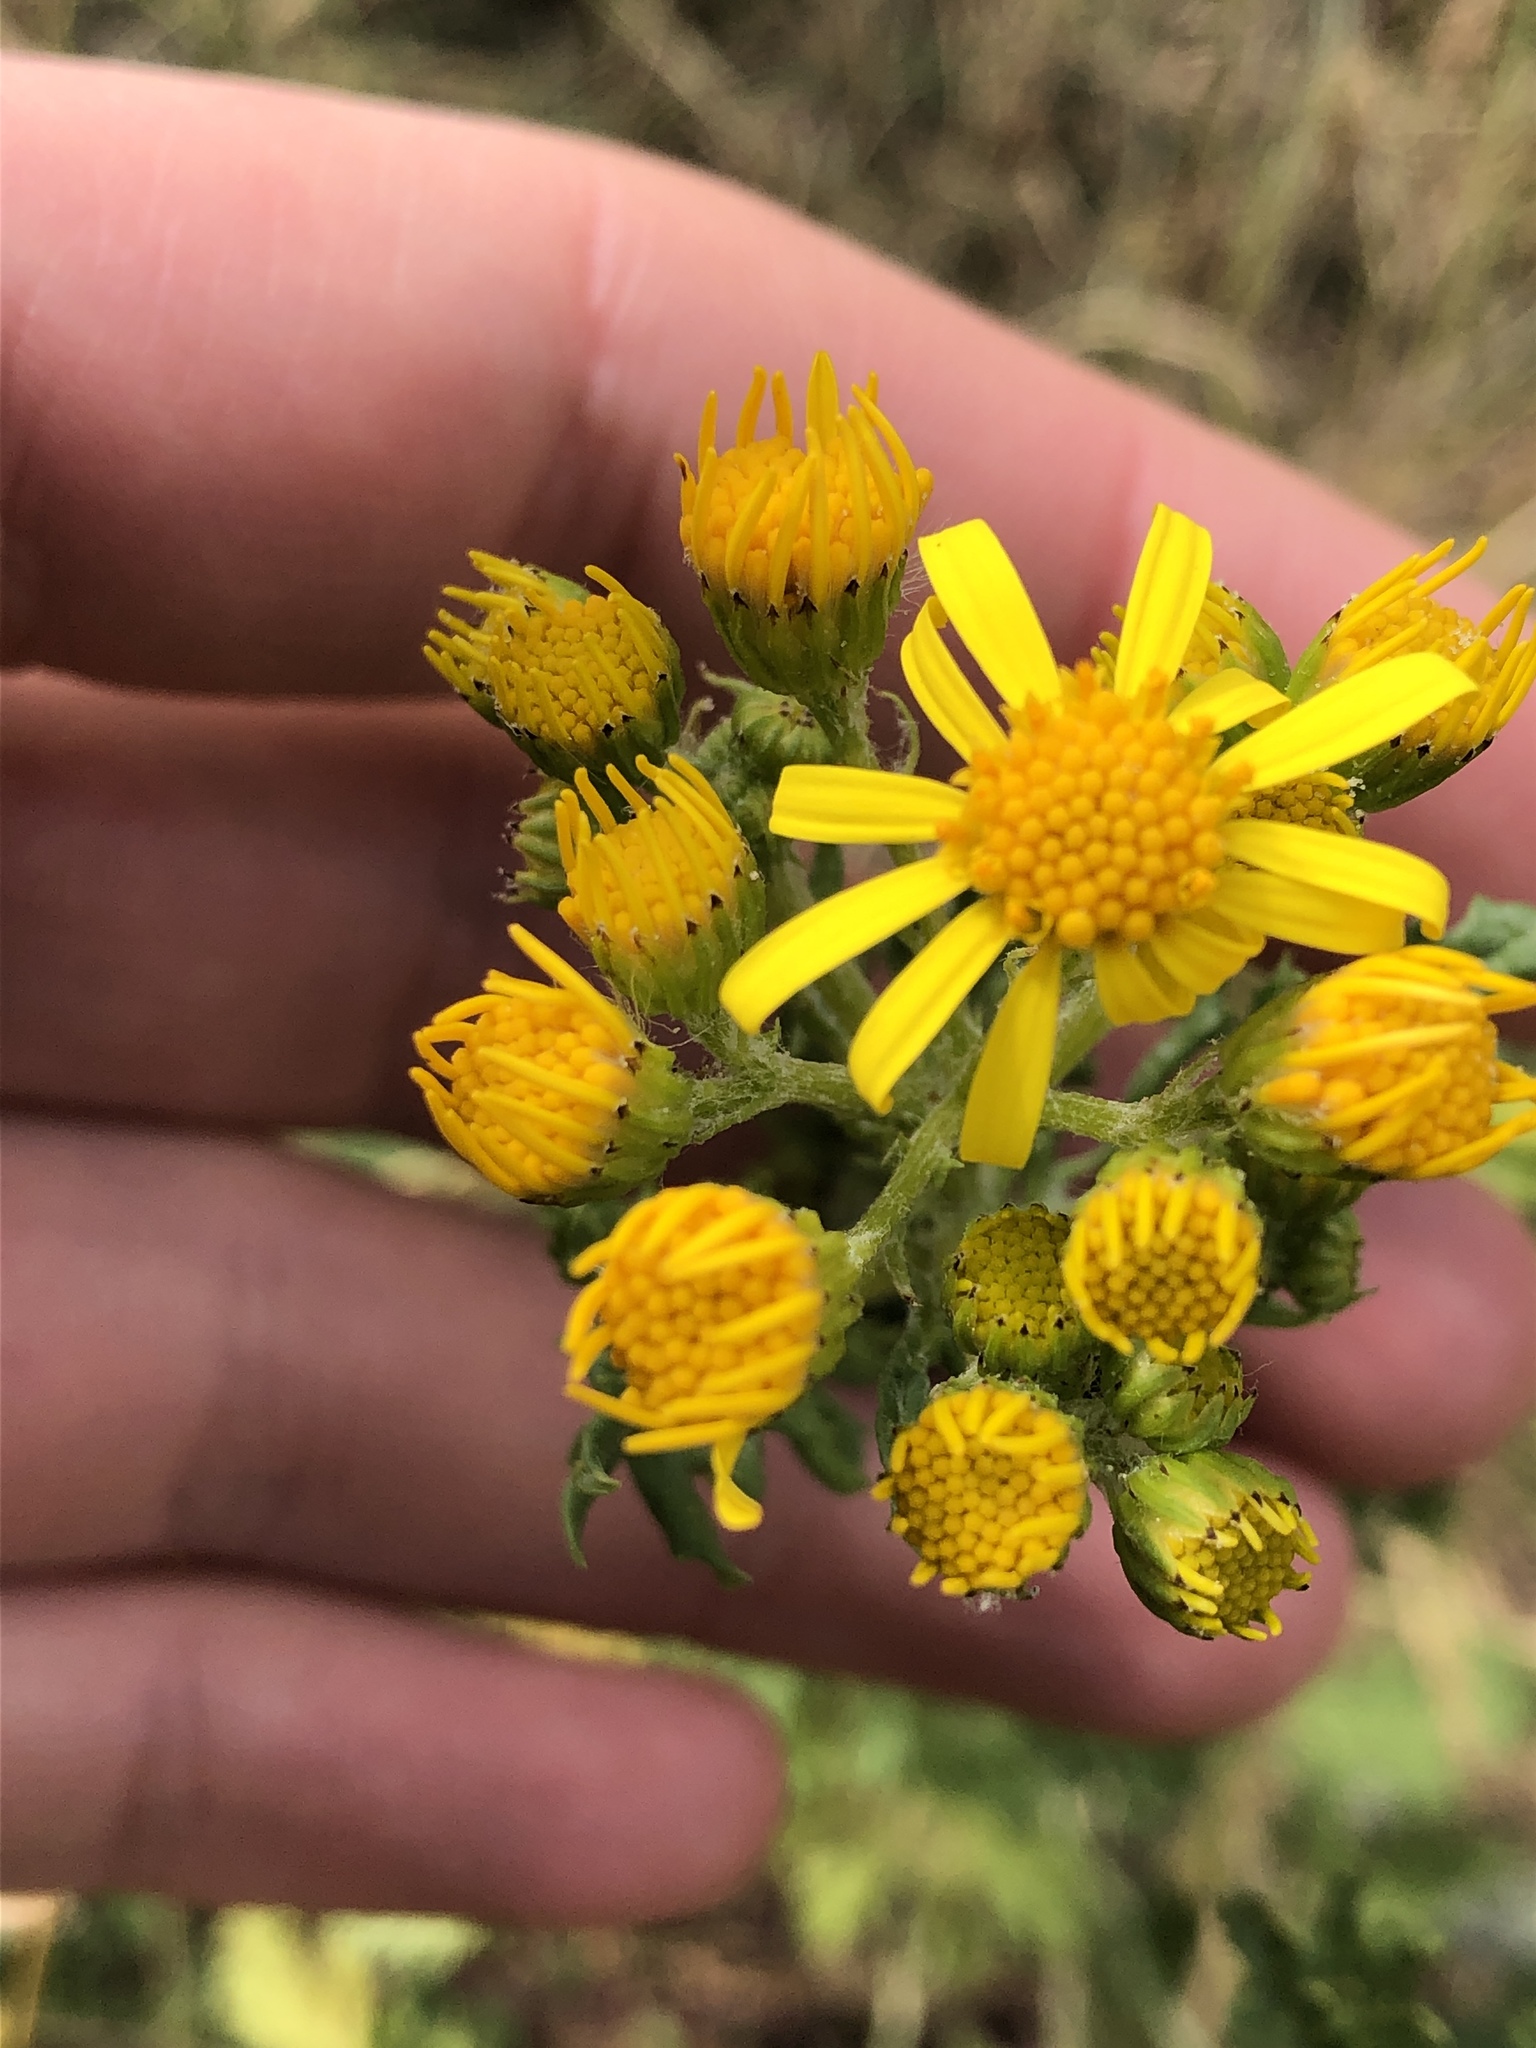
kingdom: Plantae
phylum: Tracheophyta
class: Magnoliopsida
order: Asterales
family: Asteraceae
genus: Jacobaea
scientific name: Jacobaea vulgaris
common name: Stinking willie
